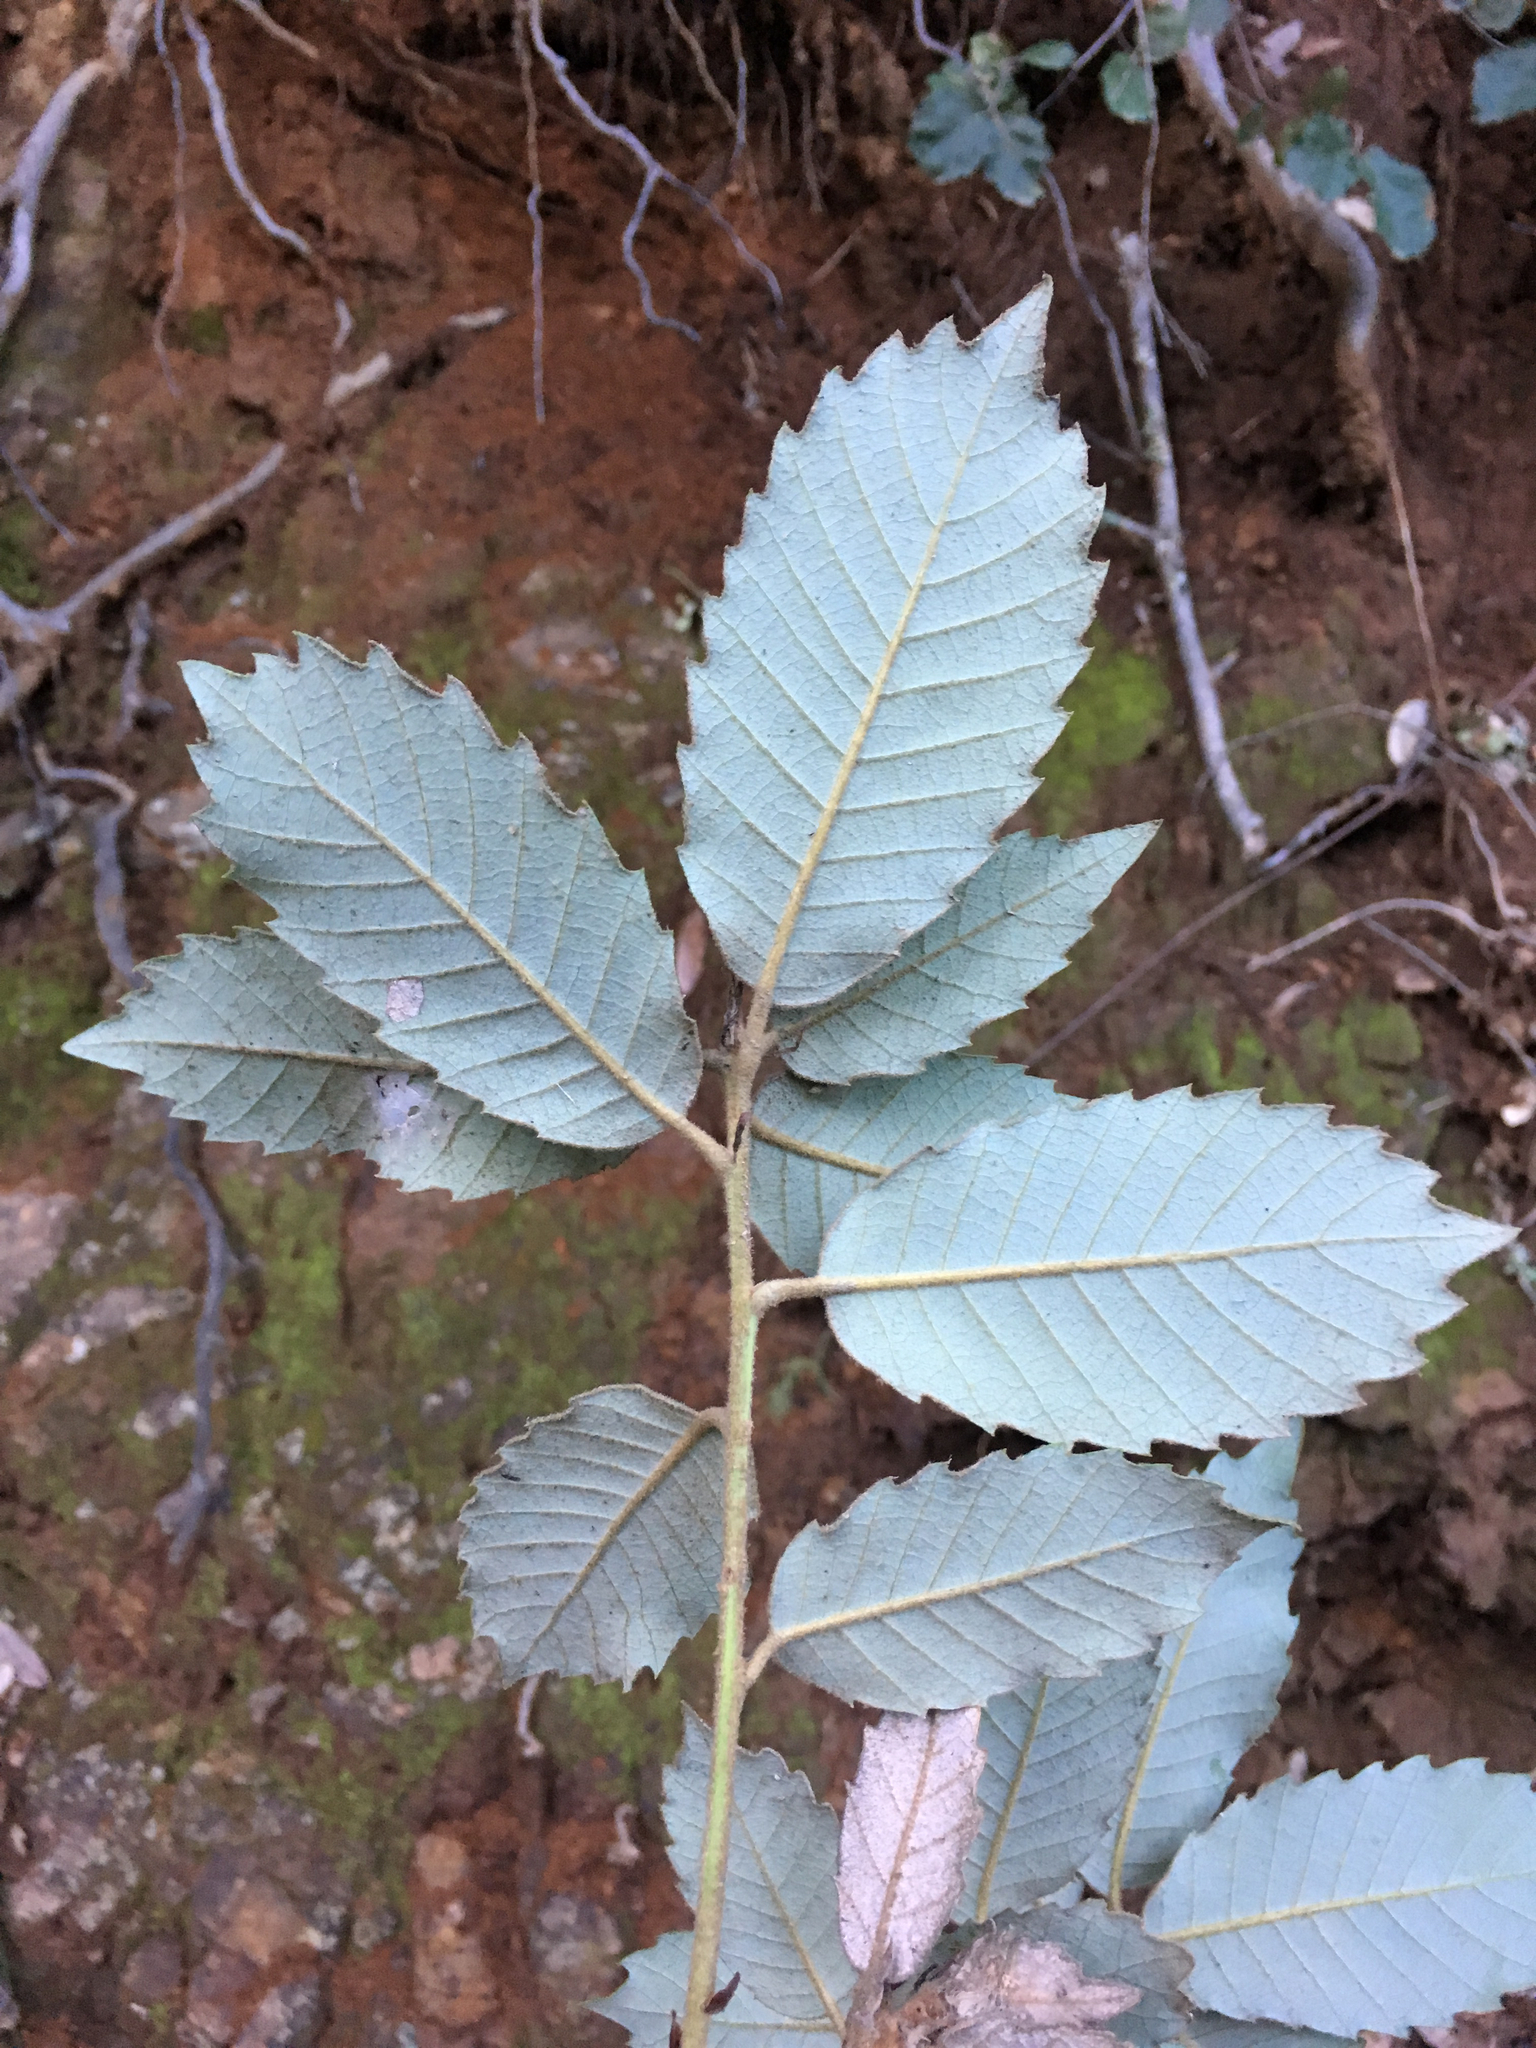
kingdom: Plantae
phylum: Tracheophyta
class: Magnoliopsida
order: Fagales
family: Fagaceae
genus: Notholithocarpus
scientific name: Notholithocarpus densiflorus
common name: Tan bark oak
